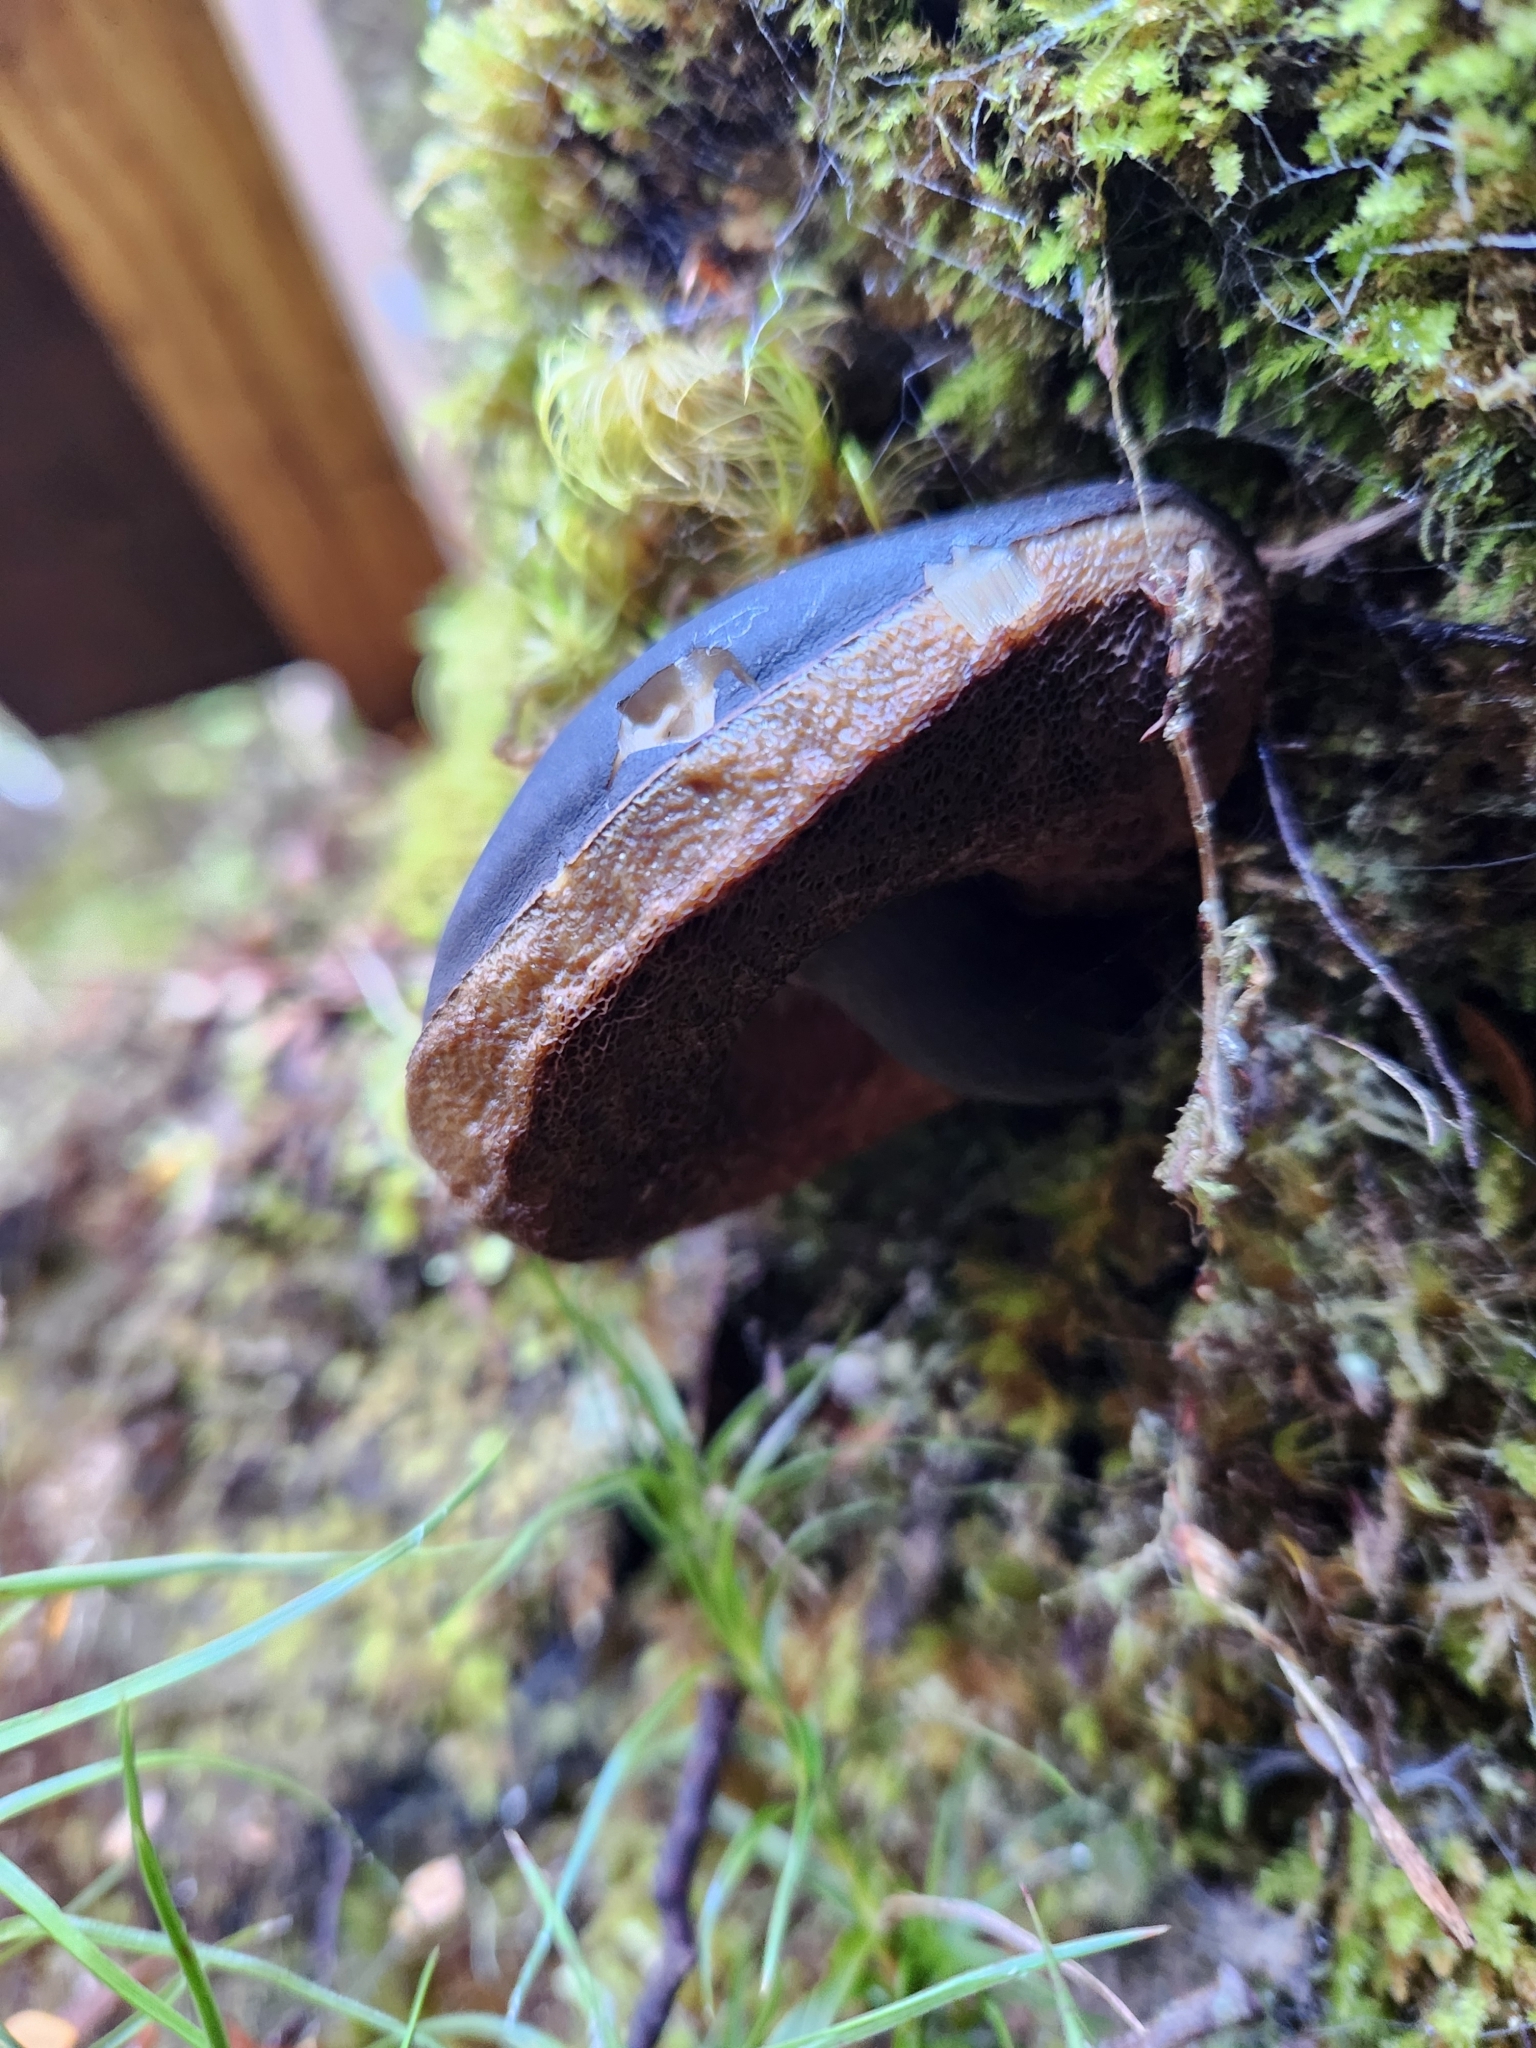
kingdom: Fungi
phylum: Basidiomycota
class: Agaricomycetes
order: Boletales
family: Boletaceae
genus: Porphyrellus
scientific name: Porphyrellus formosus
